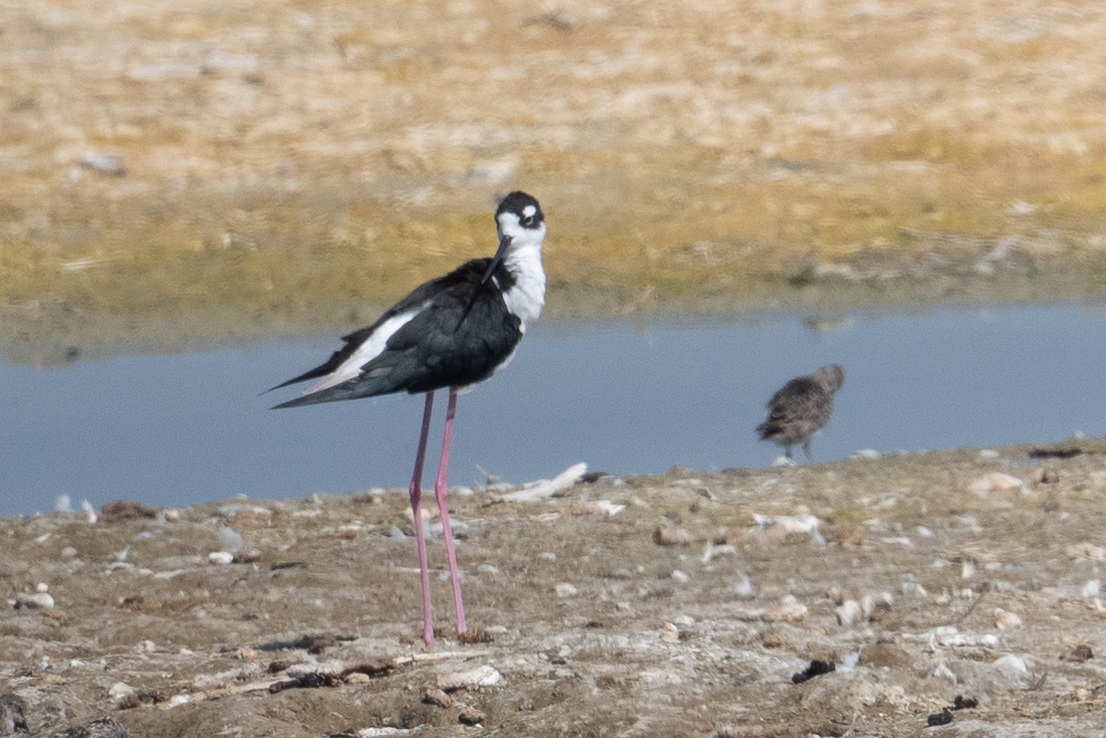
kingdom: Animalia
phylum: Chordata
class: Aves
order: Charadriiformes
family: Recurvirostridae
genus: Himantopus
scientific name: Himantopus mexicanus
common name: Black-necked stilt
